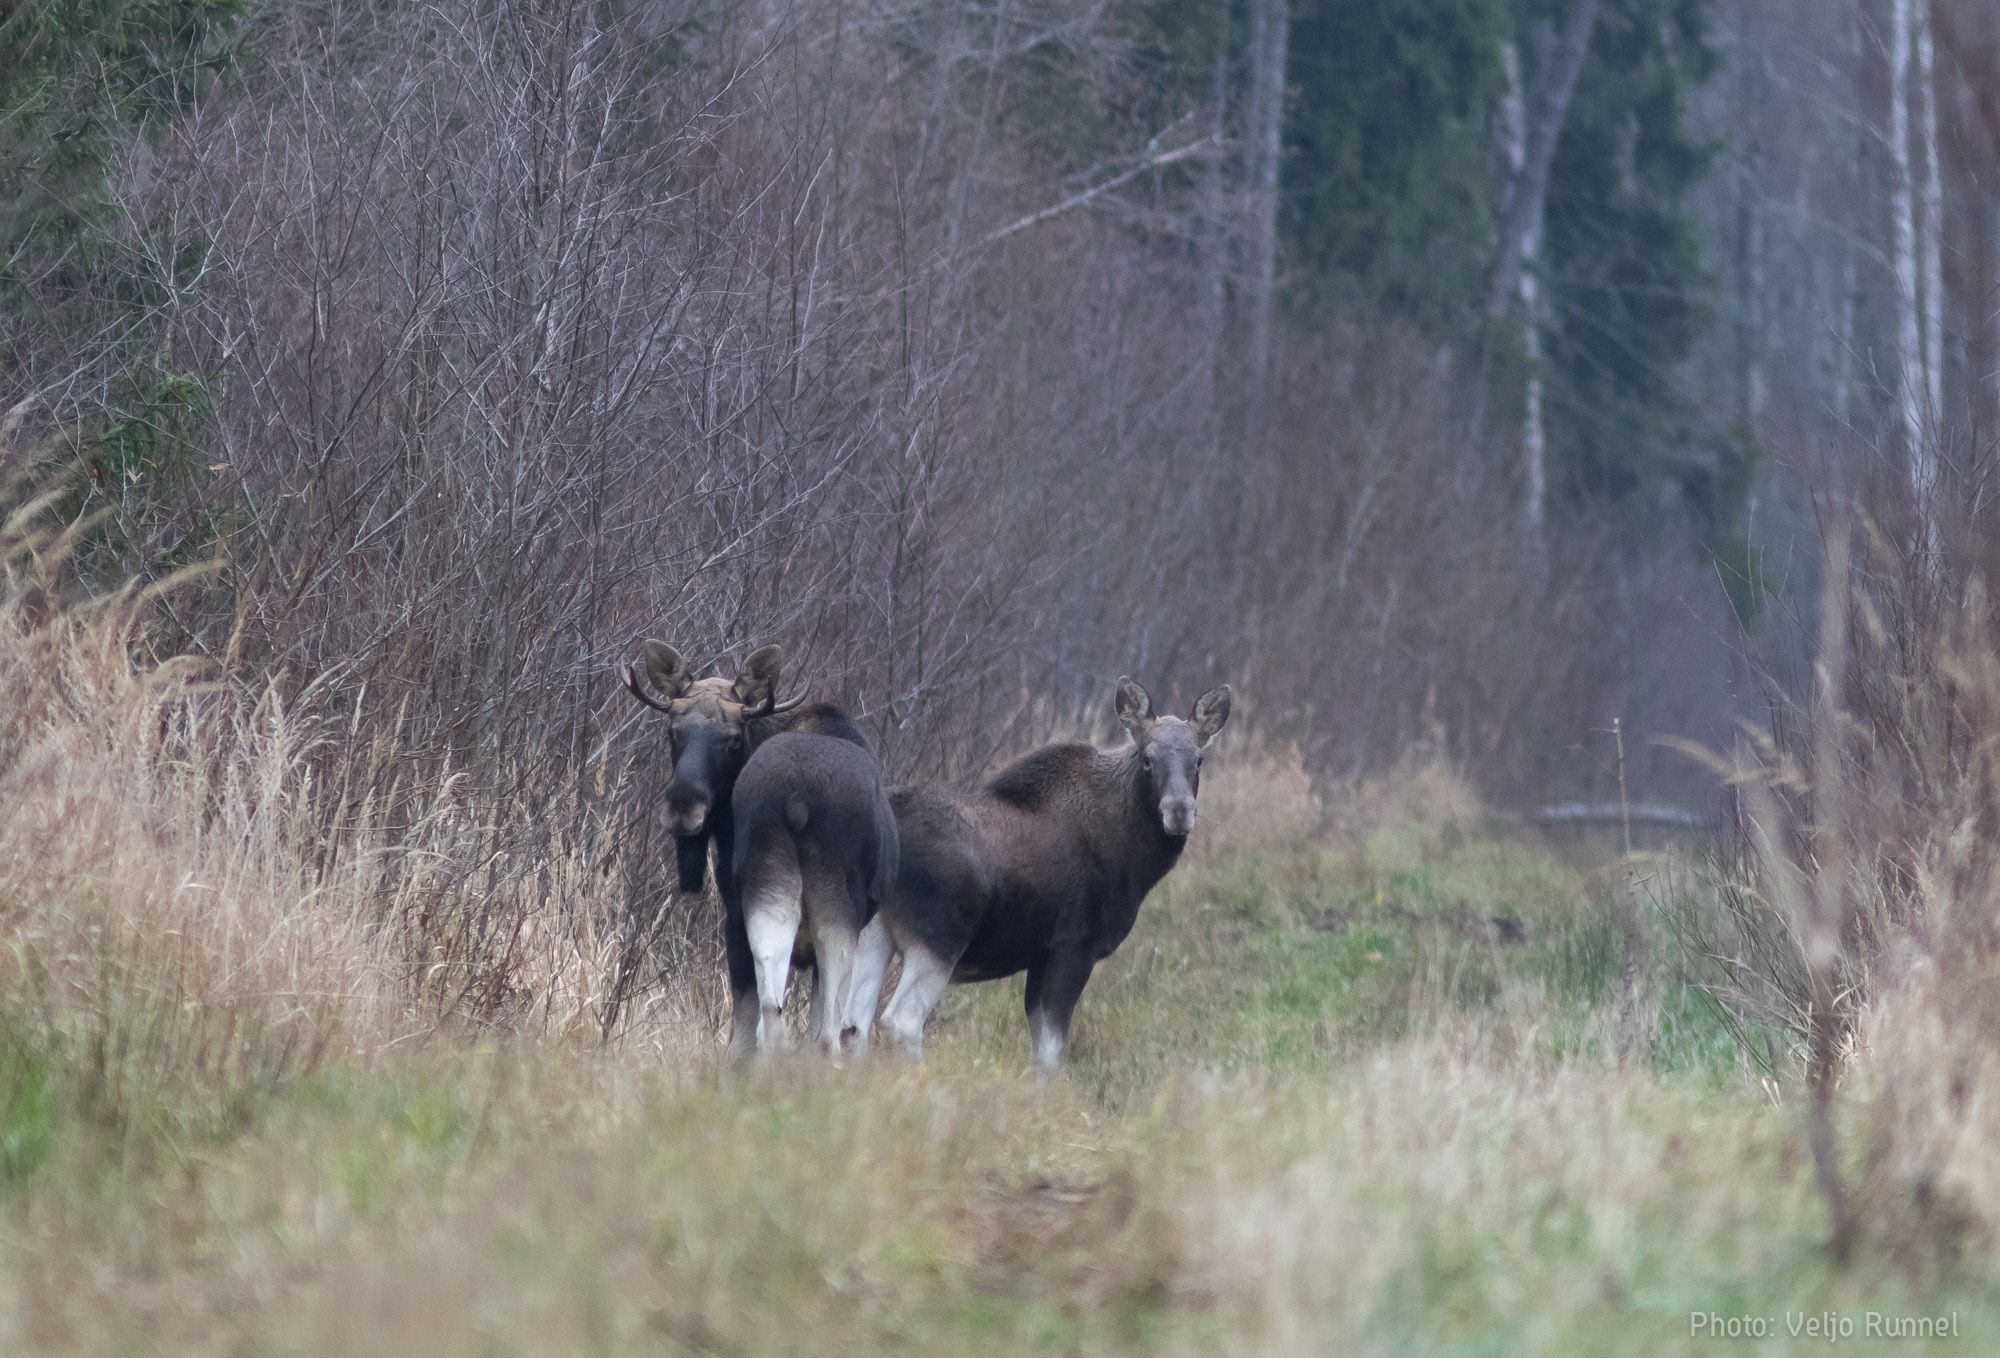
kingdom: Animalia
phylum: Chordata
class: Mammalia
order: Artiodactyla
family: Cervidae
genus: Alces
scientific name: Alces alces
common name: Moose
